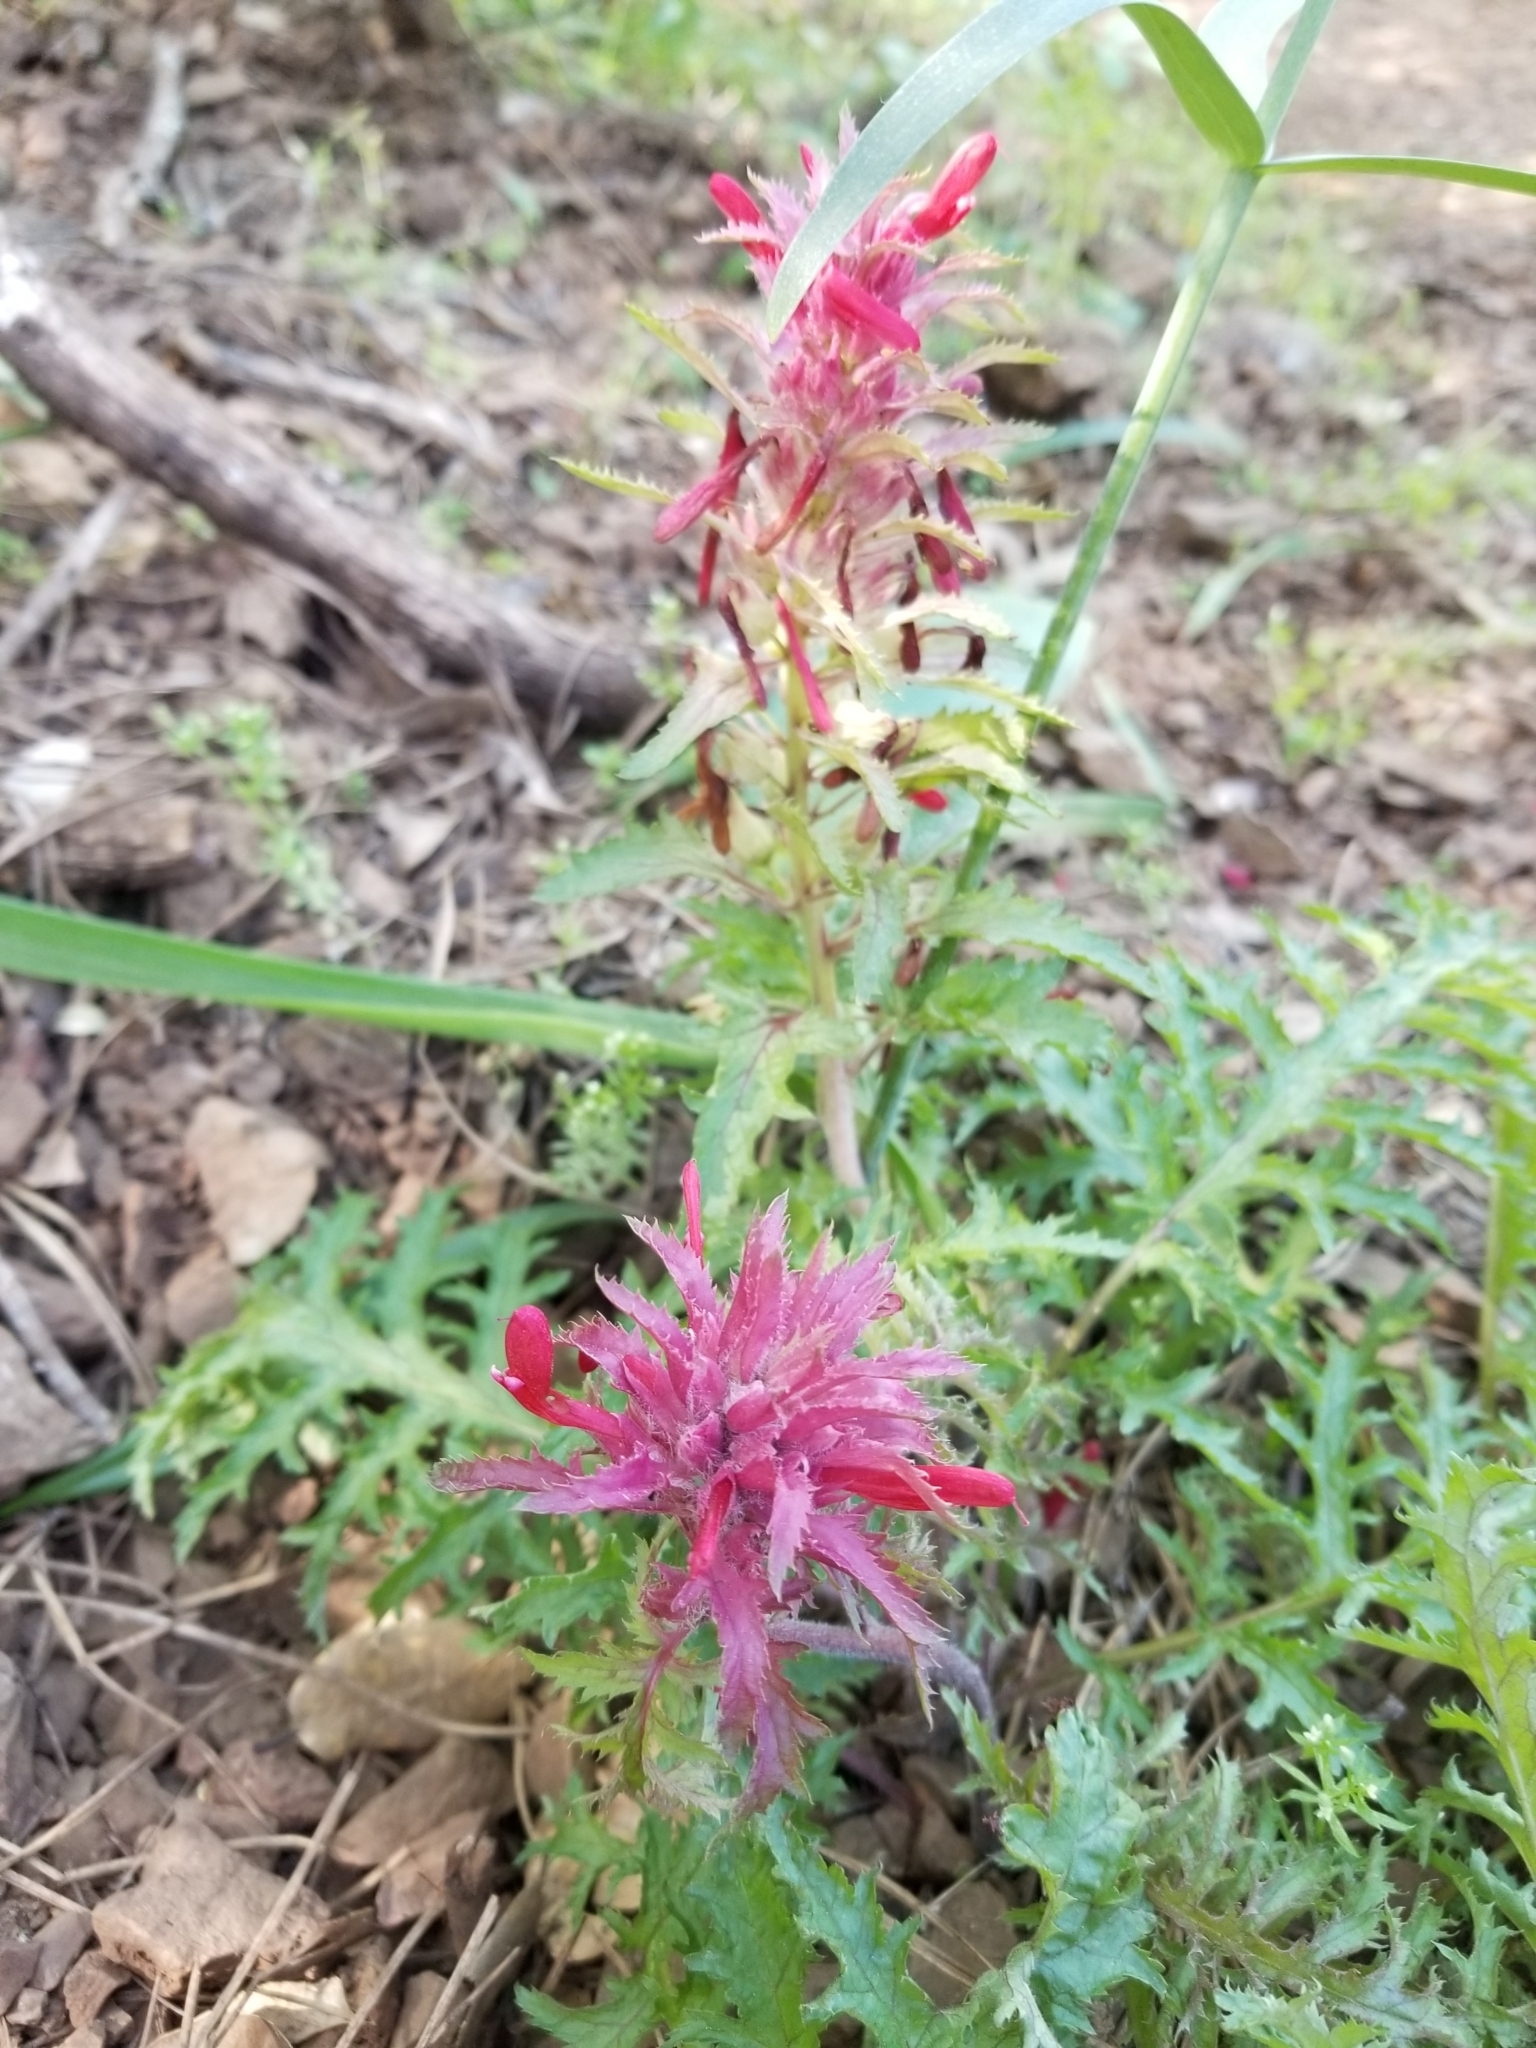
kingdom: Plantae
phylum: Tracheophyta
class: Magnoliopsida
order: Lamiales
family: Orobanchaceae
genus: Pedicularis
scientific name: Pedicularis densiflora
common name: Indian warrior
